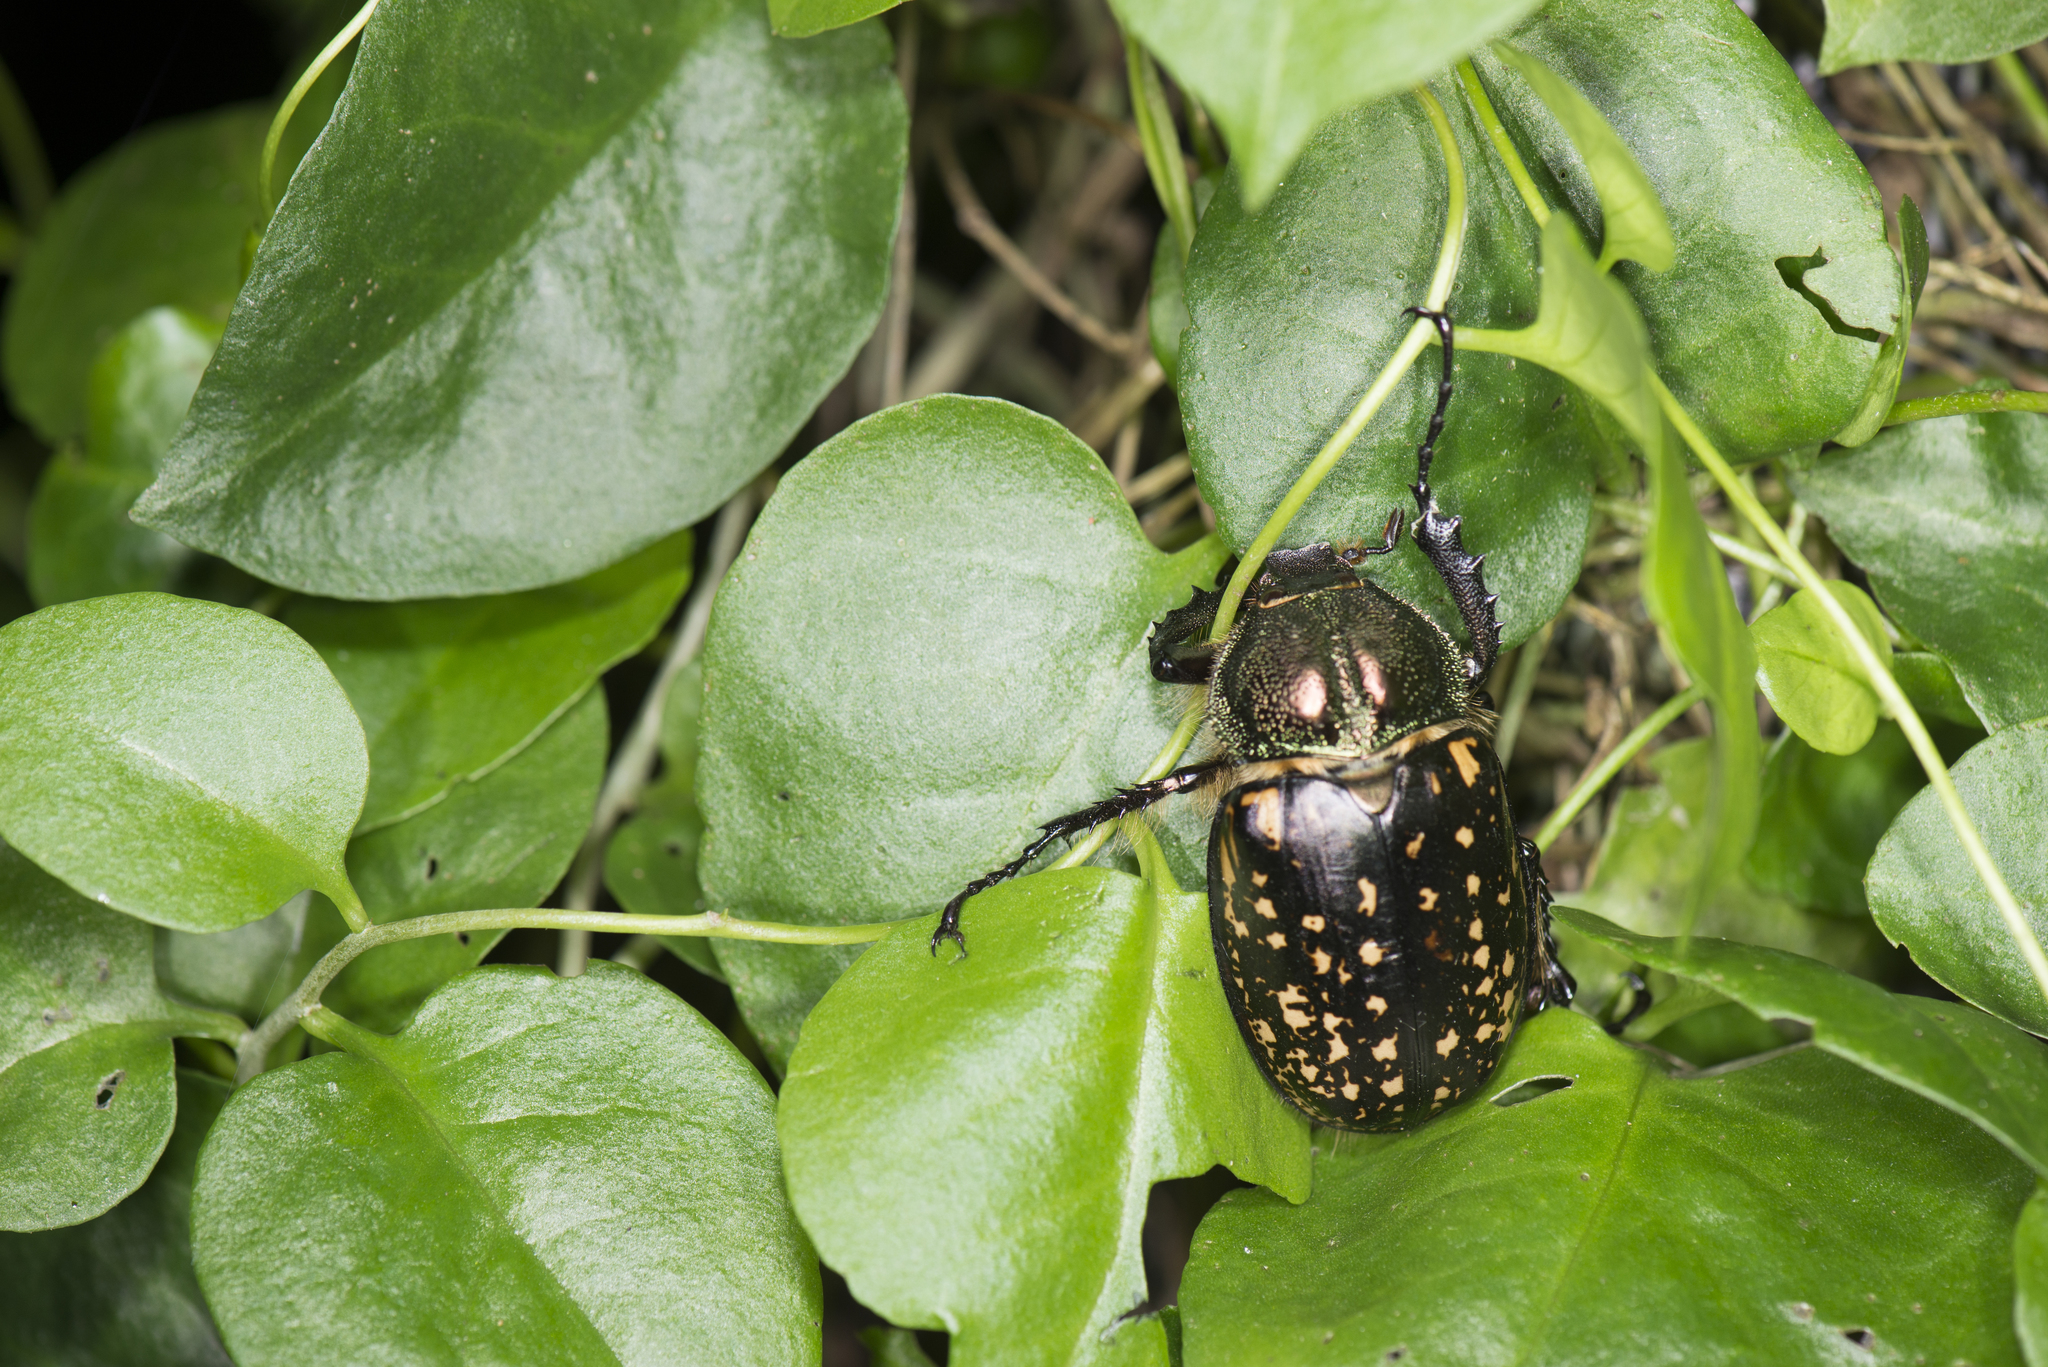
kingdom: Animalia
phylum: Arthropoda
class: Insecta
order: Coleoptera
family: Scarabaeidae
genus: Cheirotonus
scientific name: Cheirotonus formosanus
